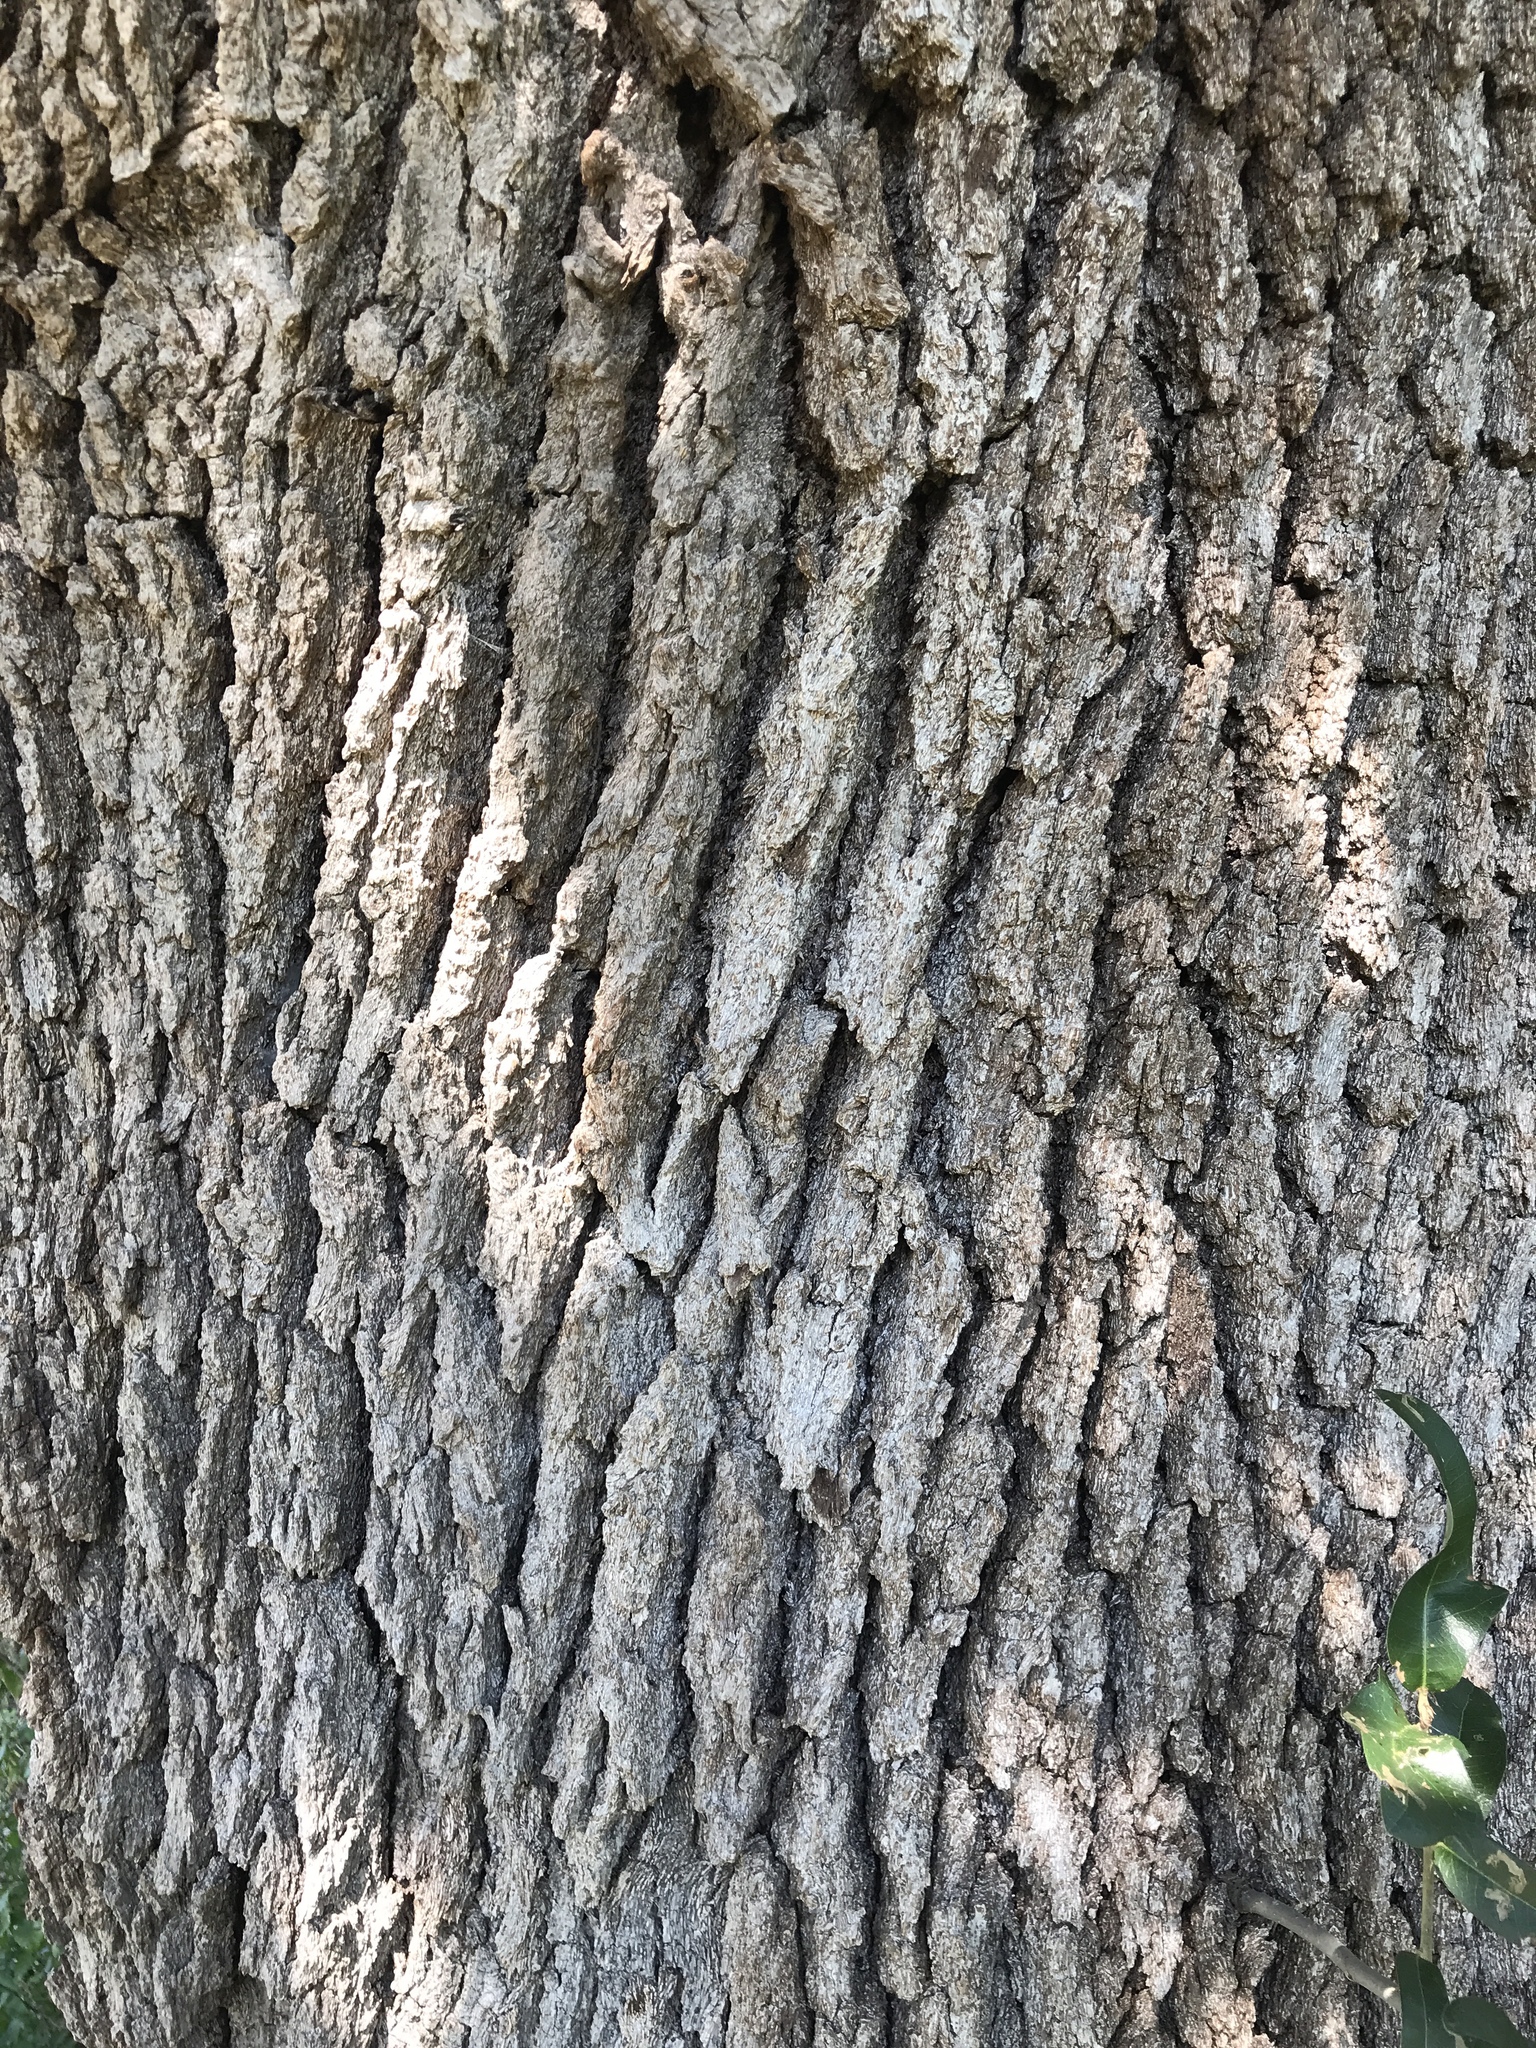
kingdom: Plantae
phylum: Tracheophyta
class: Magnoliopsida
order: Fagales
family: Fagaceae
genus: Quercus
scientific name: Quercus fusiformis
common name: Texas live oak
